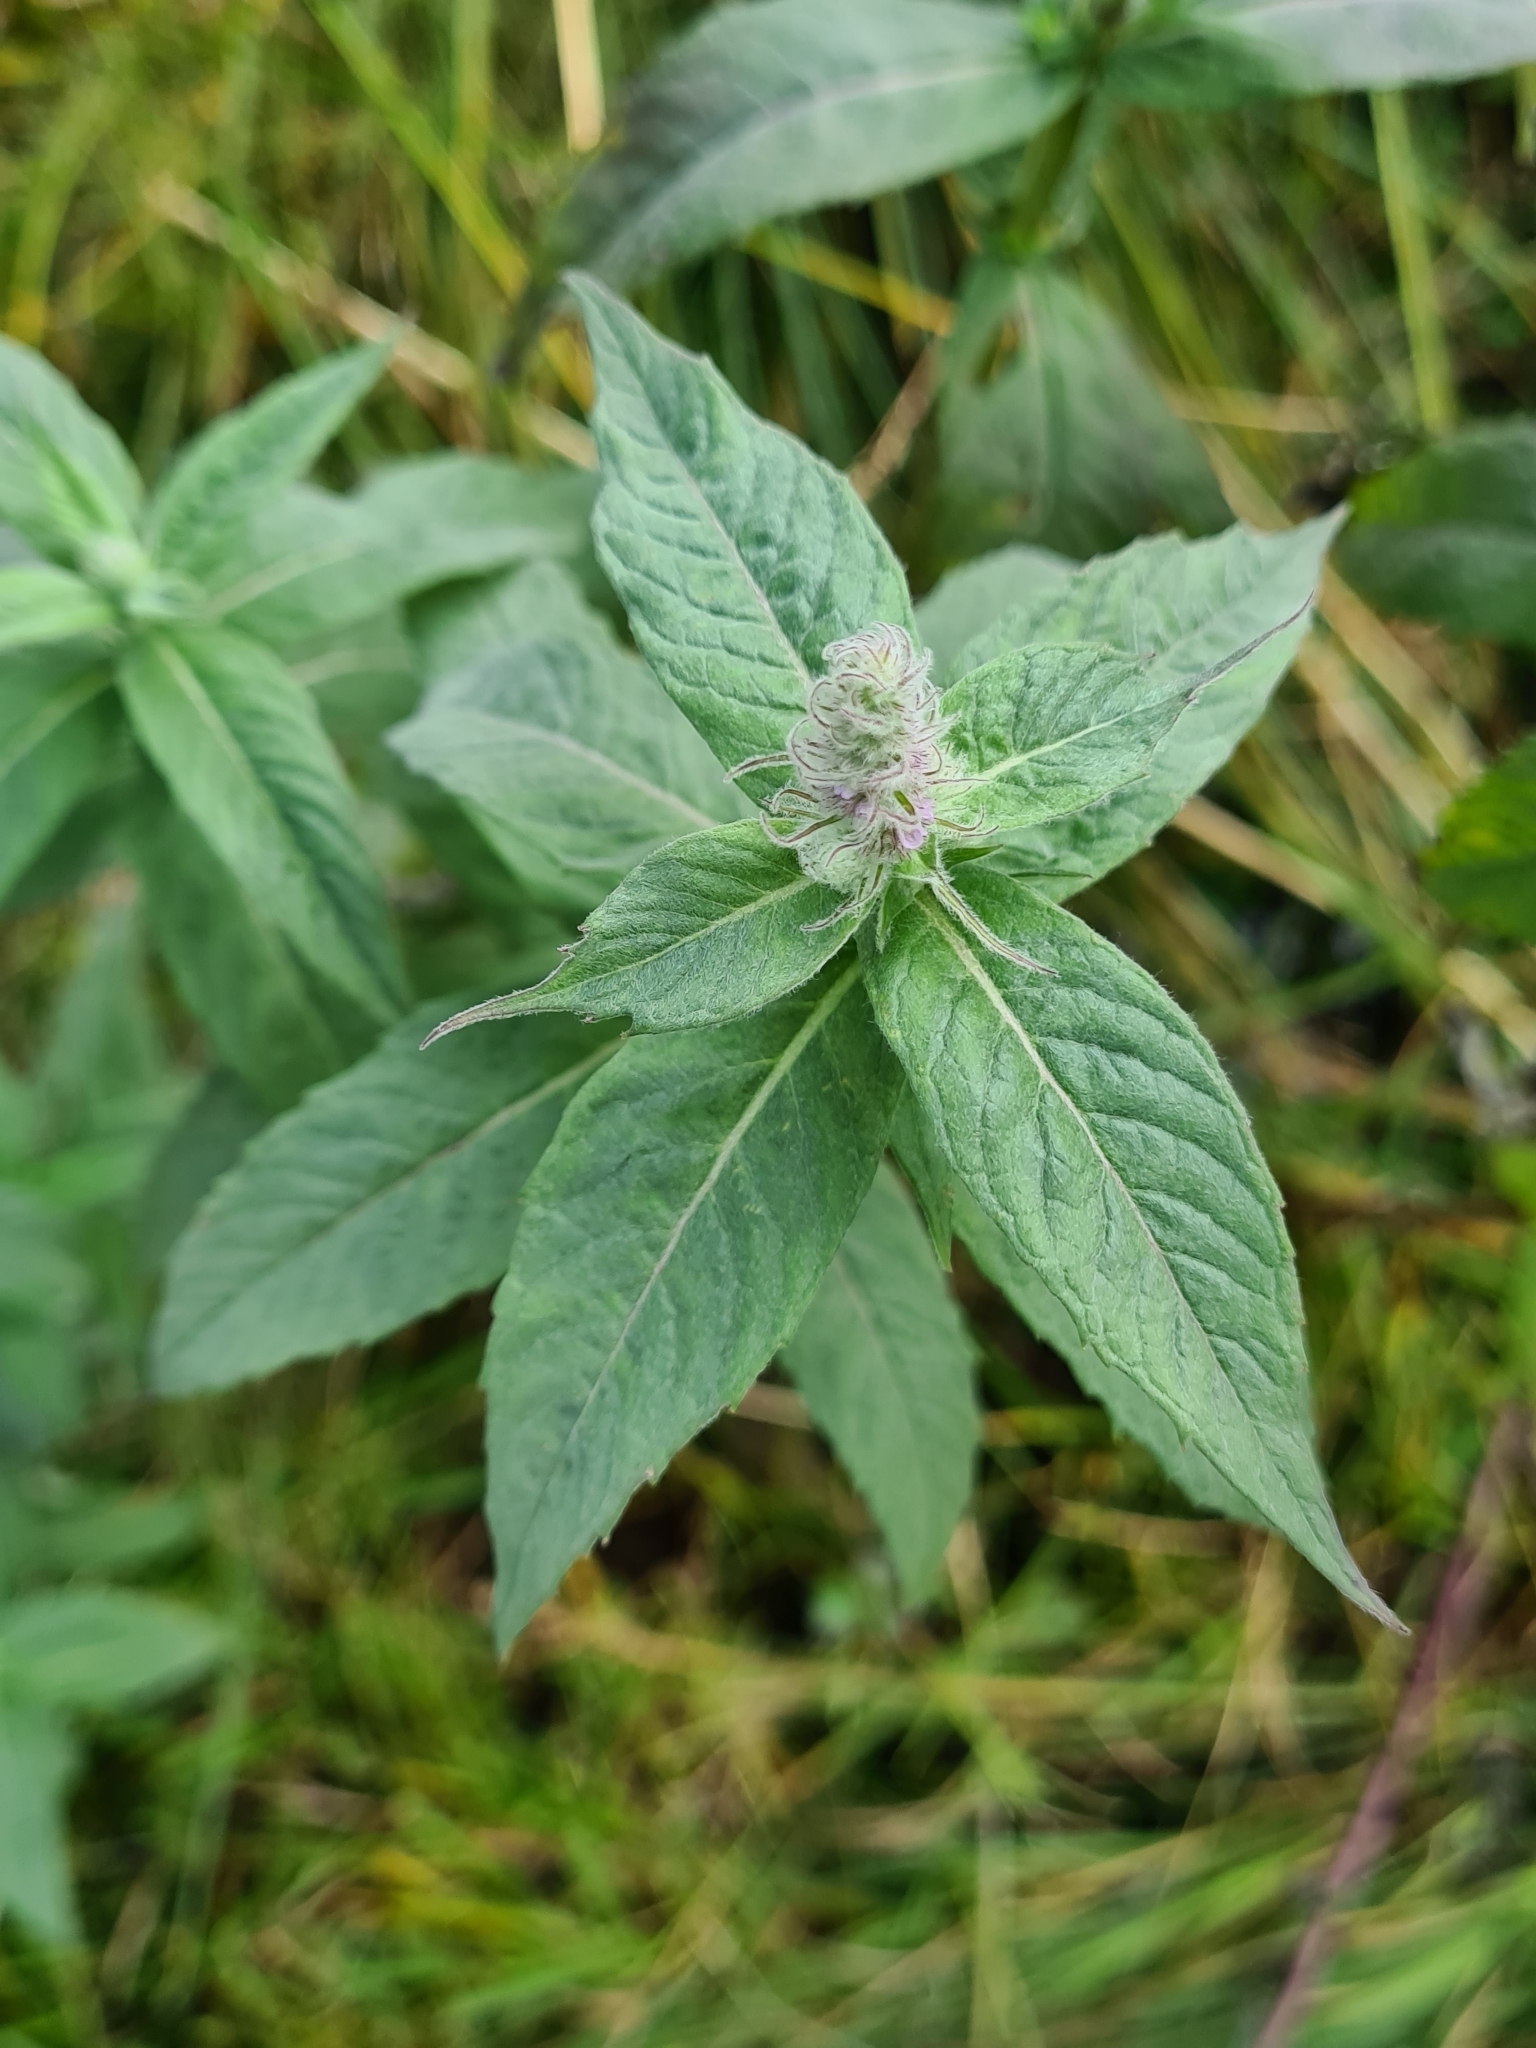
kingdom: Plantae
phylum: Tracheophyta
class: Magnoliopsida
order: Lamiales
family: Lamiaceae
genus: Mentha
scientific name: Mentha longifolia
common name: Horse mint
